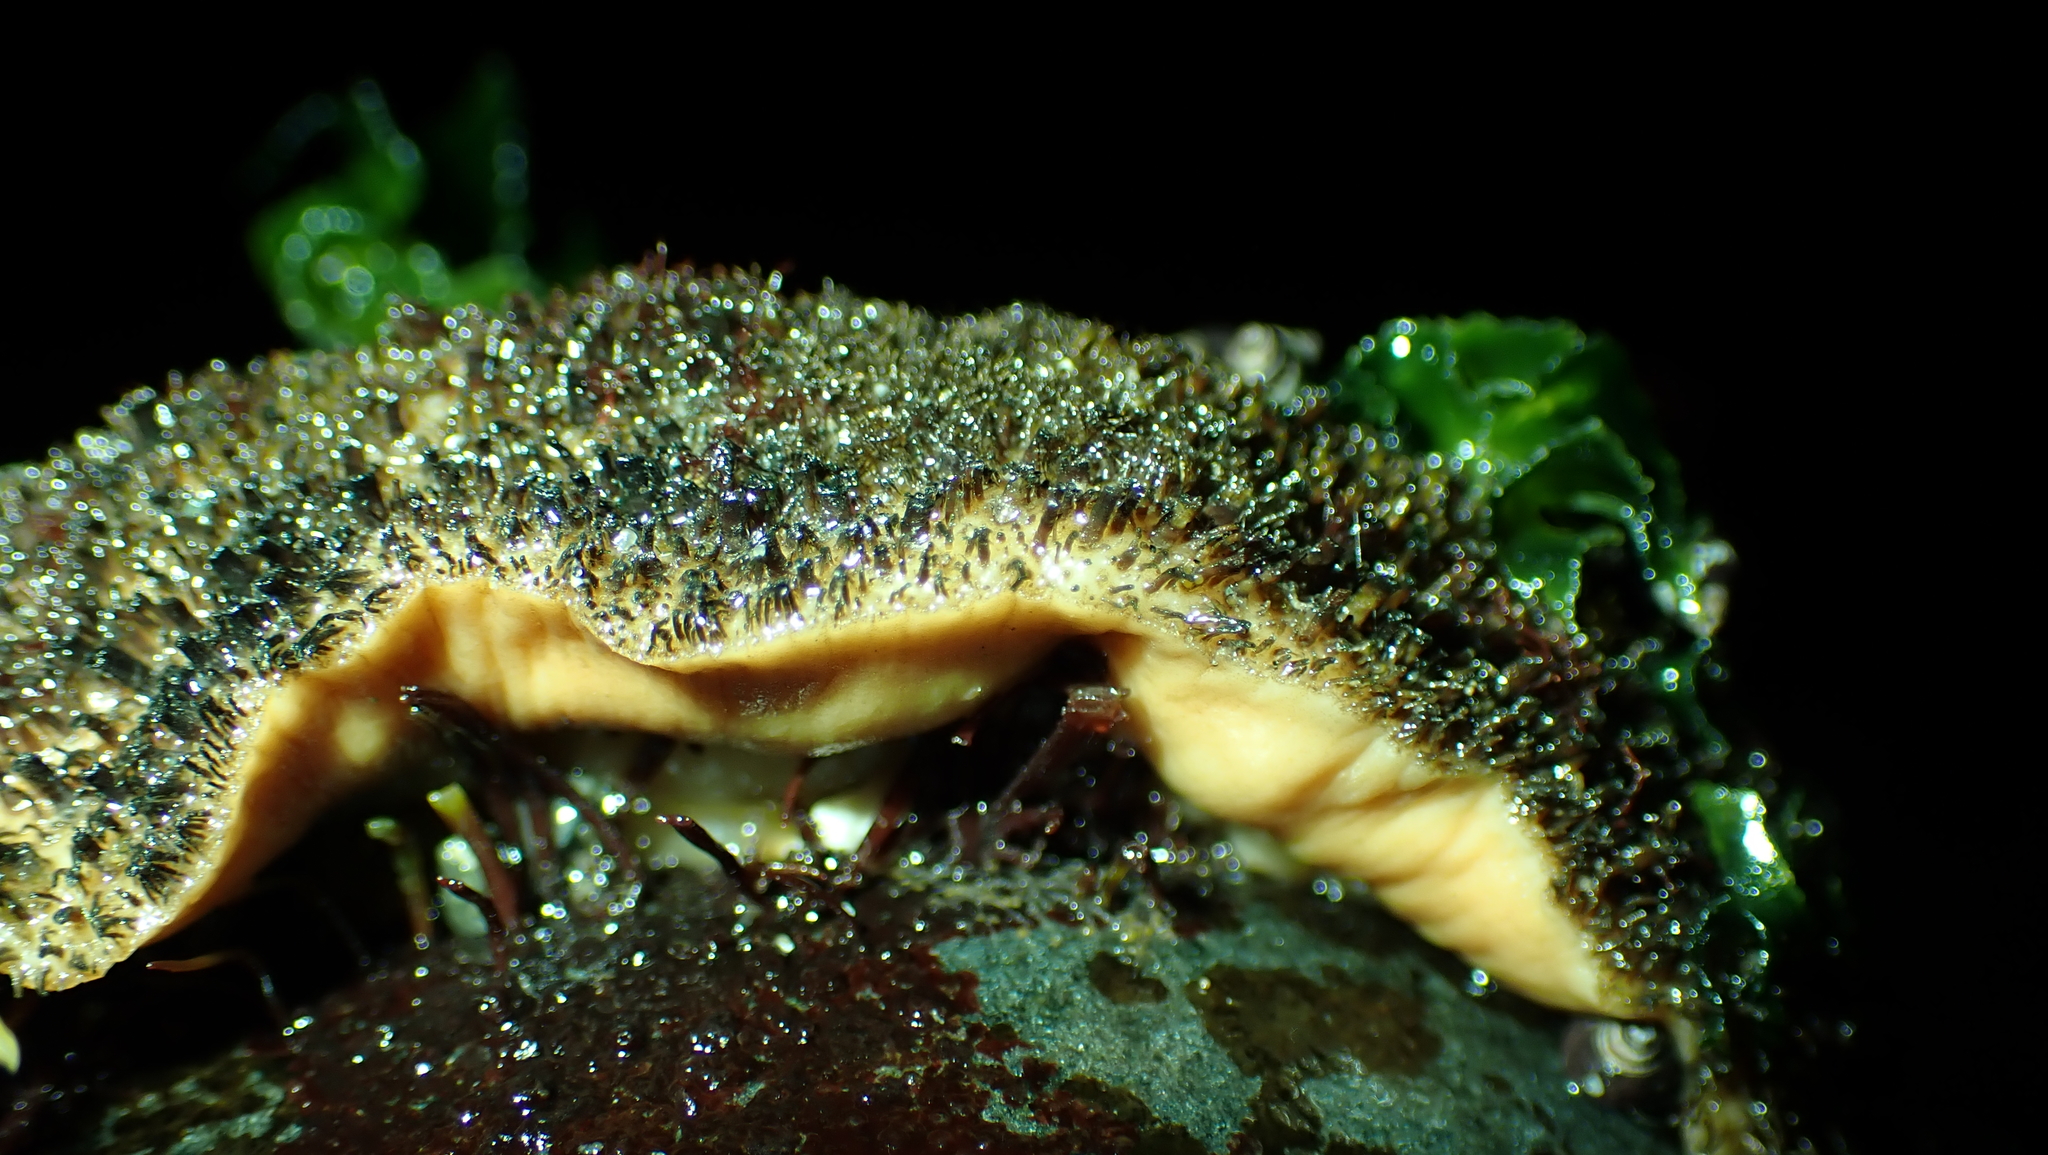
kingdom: Animalia
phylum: Mollusca
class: Polyplacophora
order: Chitonida
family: Mopaliidae
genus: Mopalia
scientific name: Mopalia muscosa
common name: Mossy chiton
